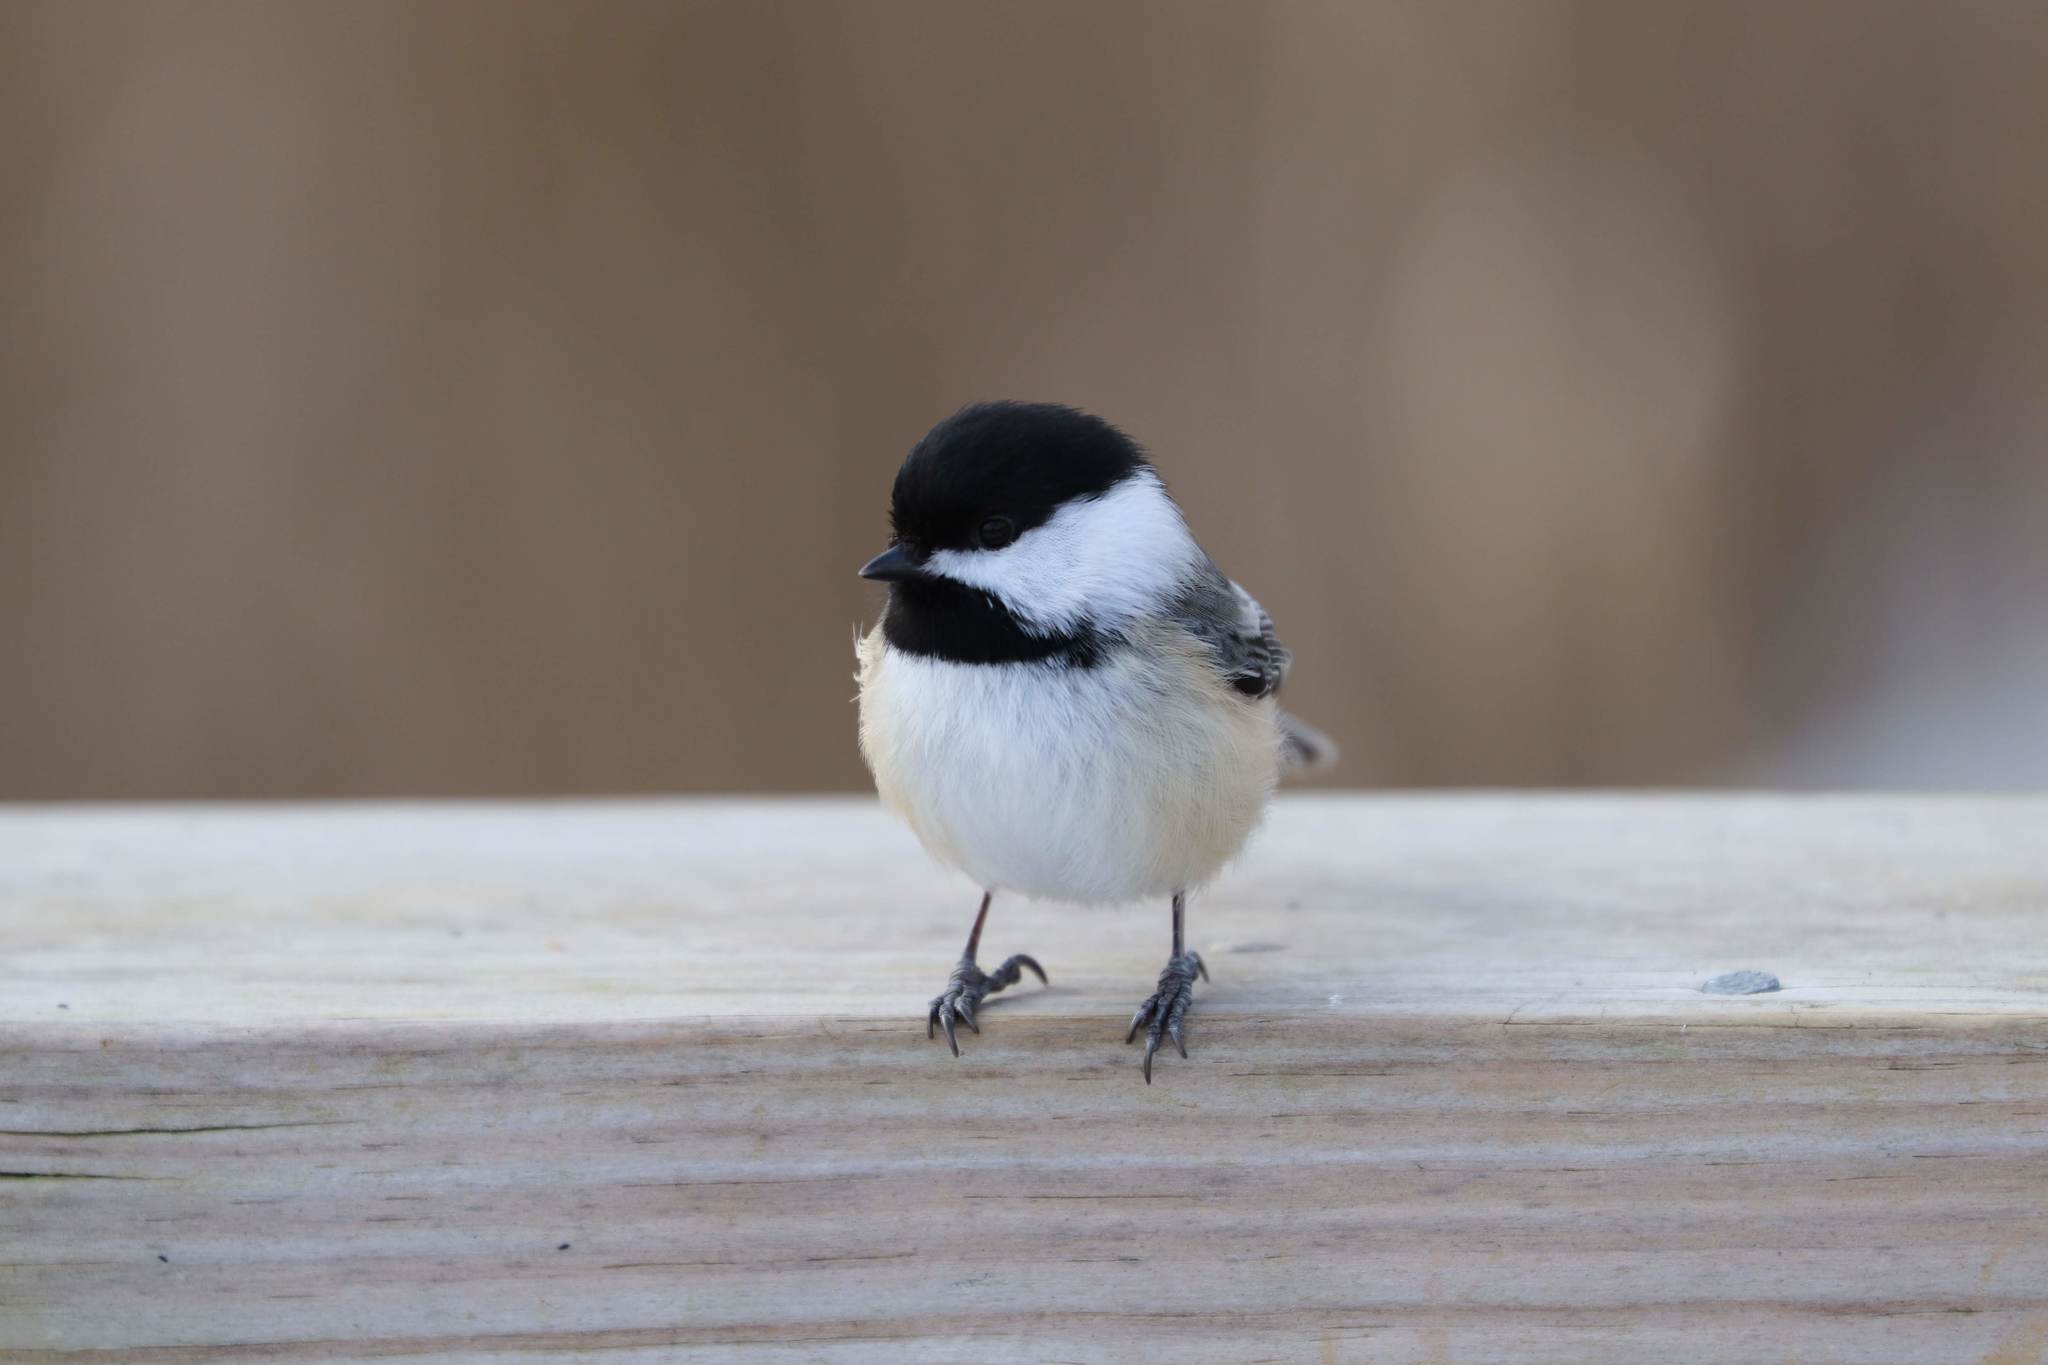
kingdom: Animalia
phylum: Chordata
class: Aves
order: Passeriformes
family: Paridae
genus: Poecile
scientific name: Poecile atricapillus
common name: Black-capped chickadee
